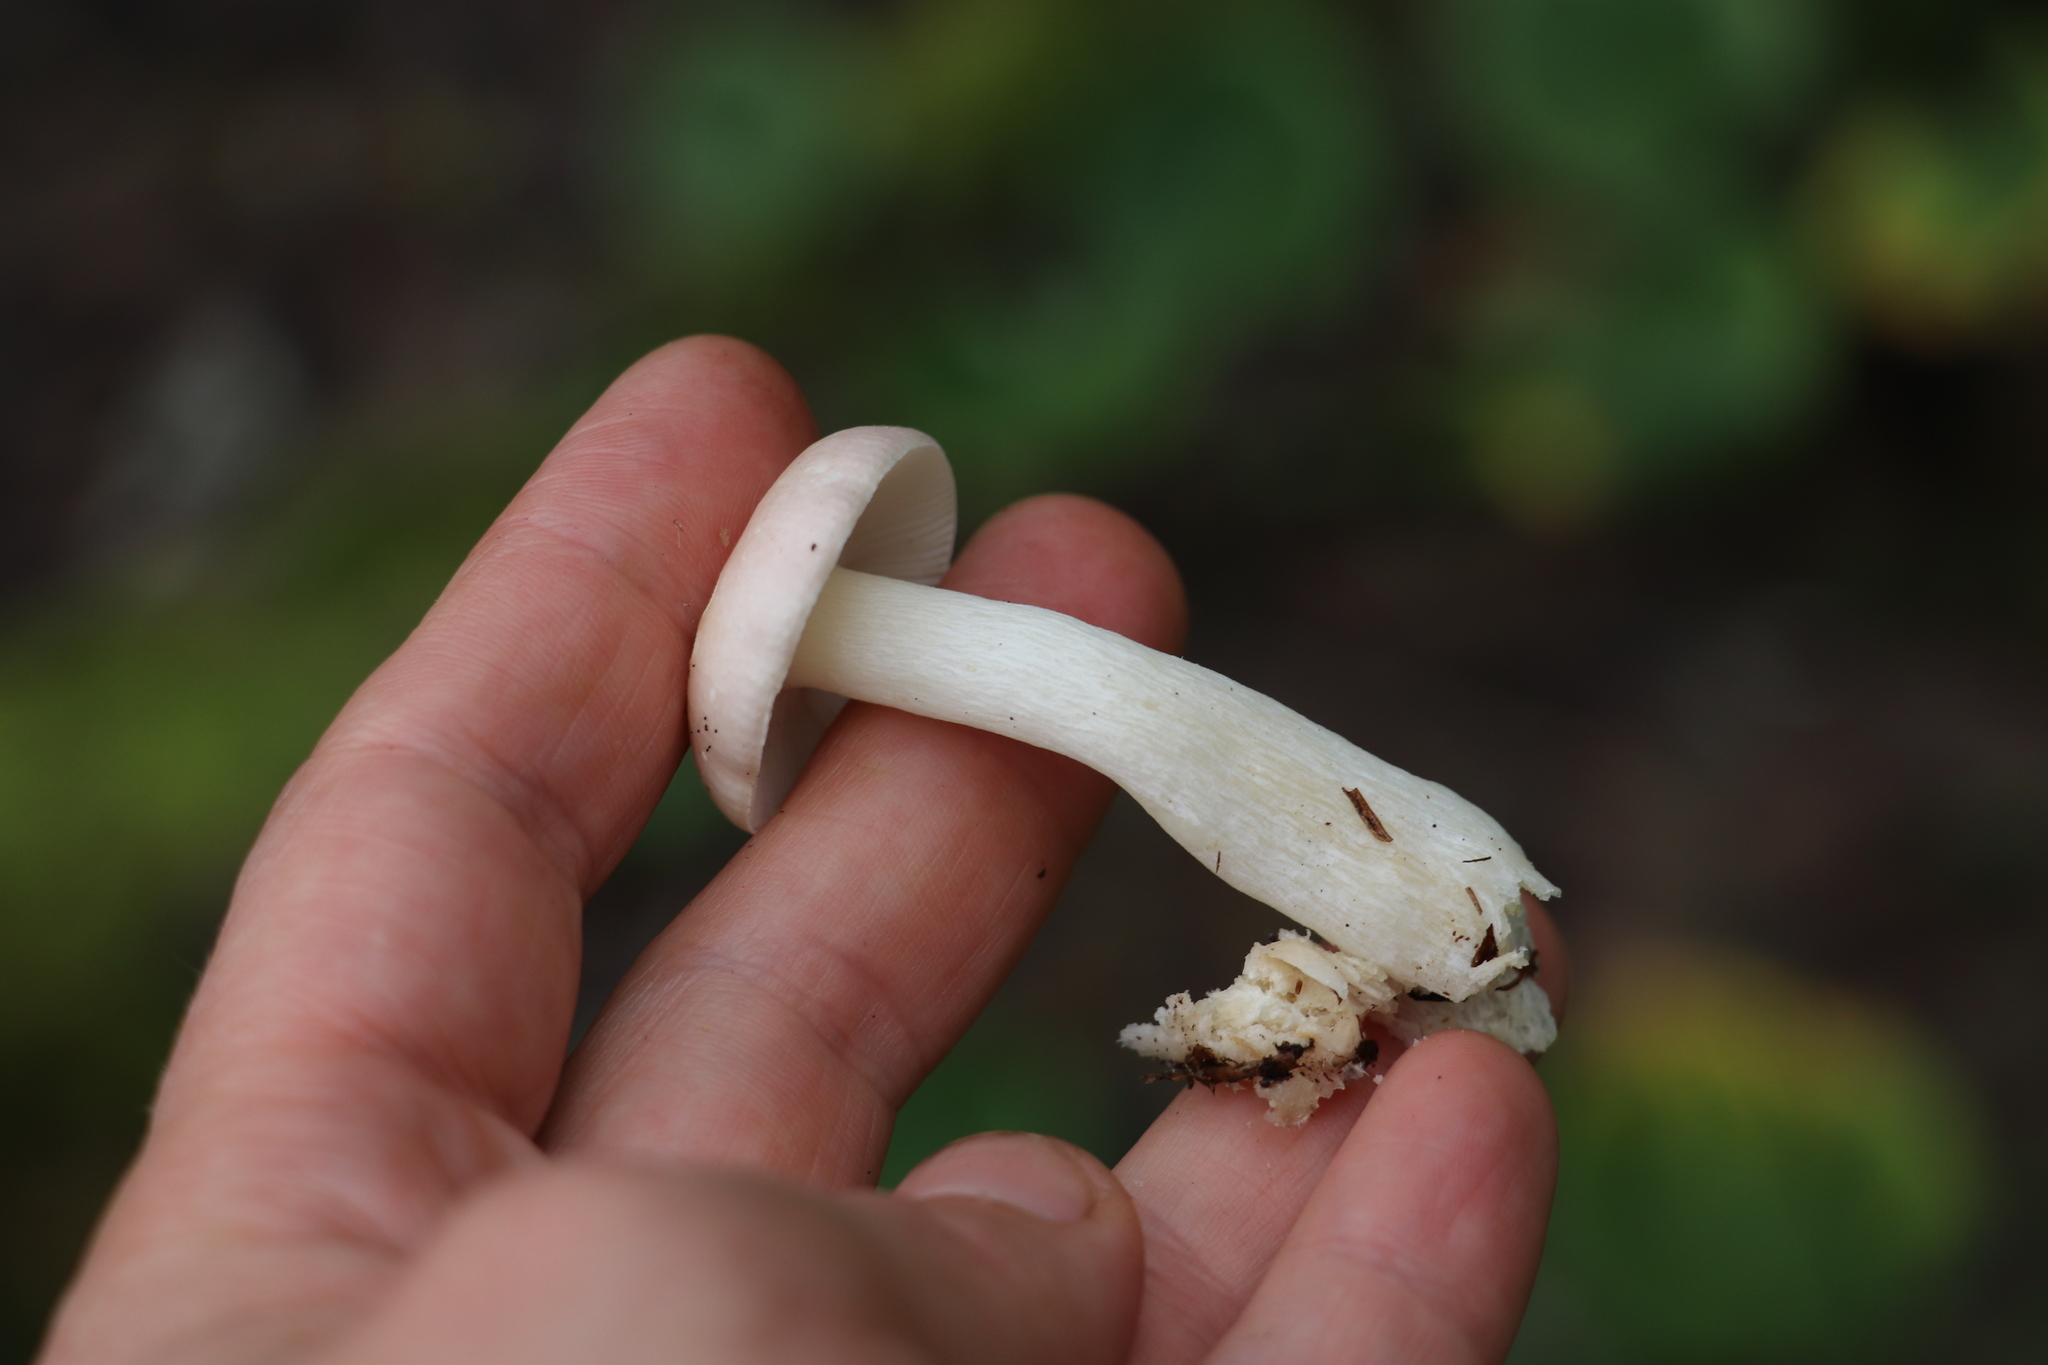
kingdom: Fungi
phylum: Basidiomycota
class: Agaricomycetes
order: Russulales
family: Russulaceae
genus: Russula
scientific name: Russula betularum
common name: Birch brittlegill
